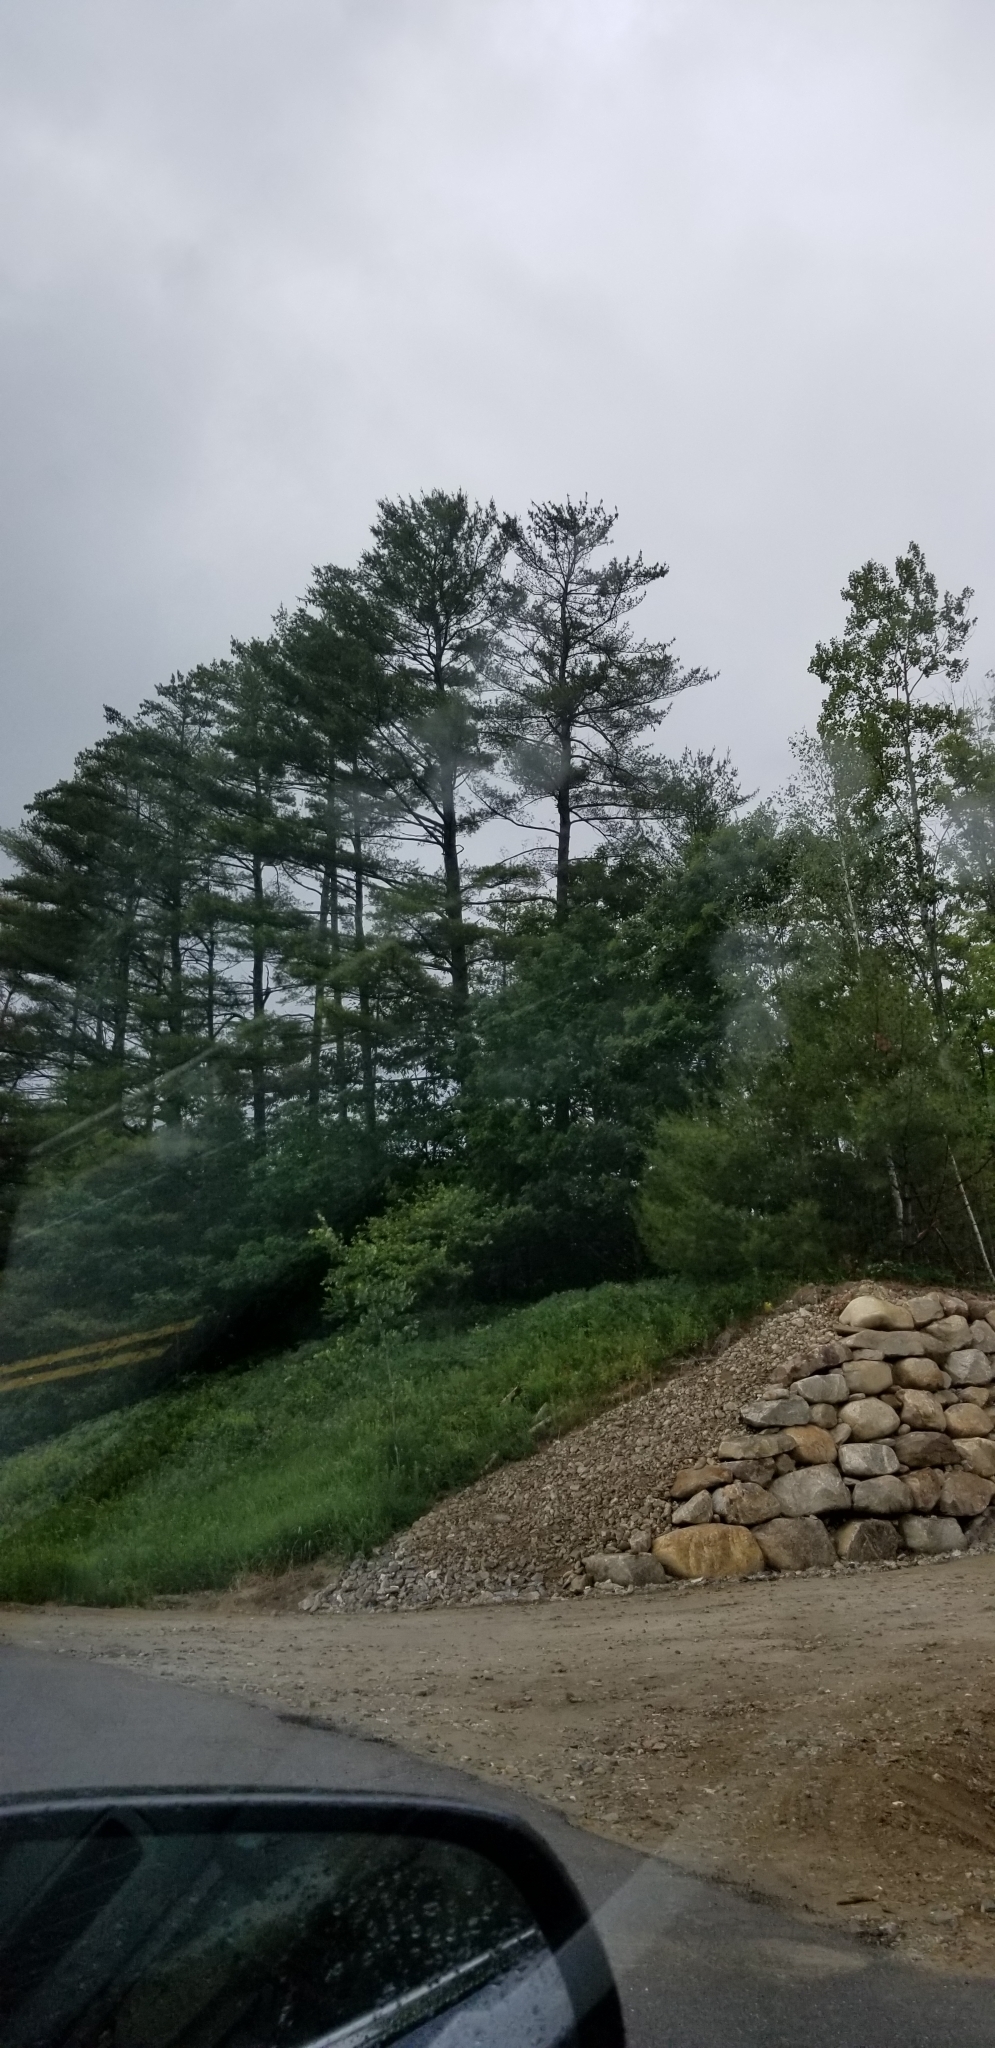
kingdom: Plantae
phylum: Tracheophyta
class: Pinopsida
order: Pinales
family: Pinaceae
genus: Pinus
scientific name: Pinus strobus
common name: Weymouth pine
